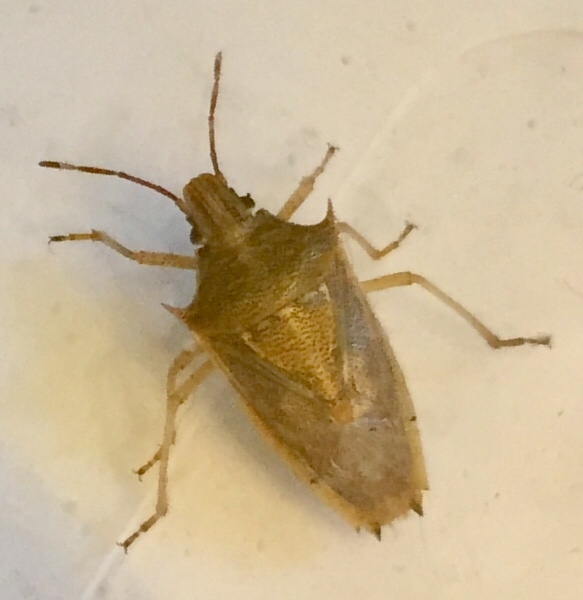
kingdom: Animalia
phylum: Arthropoda
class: Insecta
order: Hemiptera
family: Pentatomidae
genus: Oebalus
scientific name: Oebalus pugnax
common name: Rice stink bug
